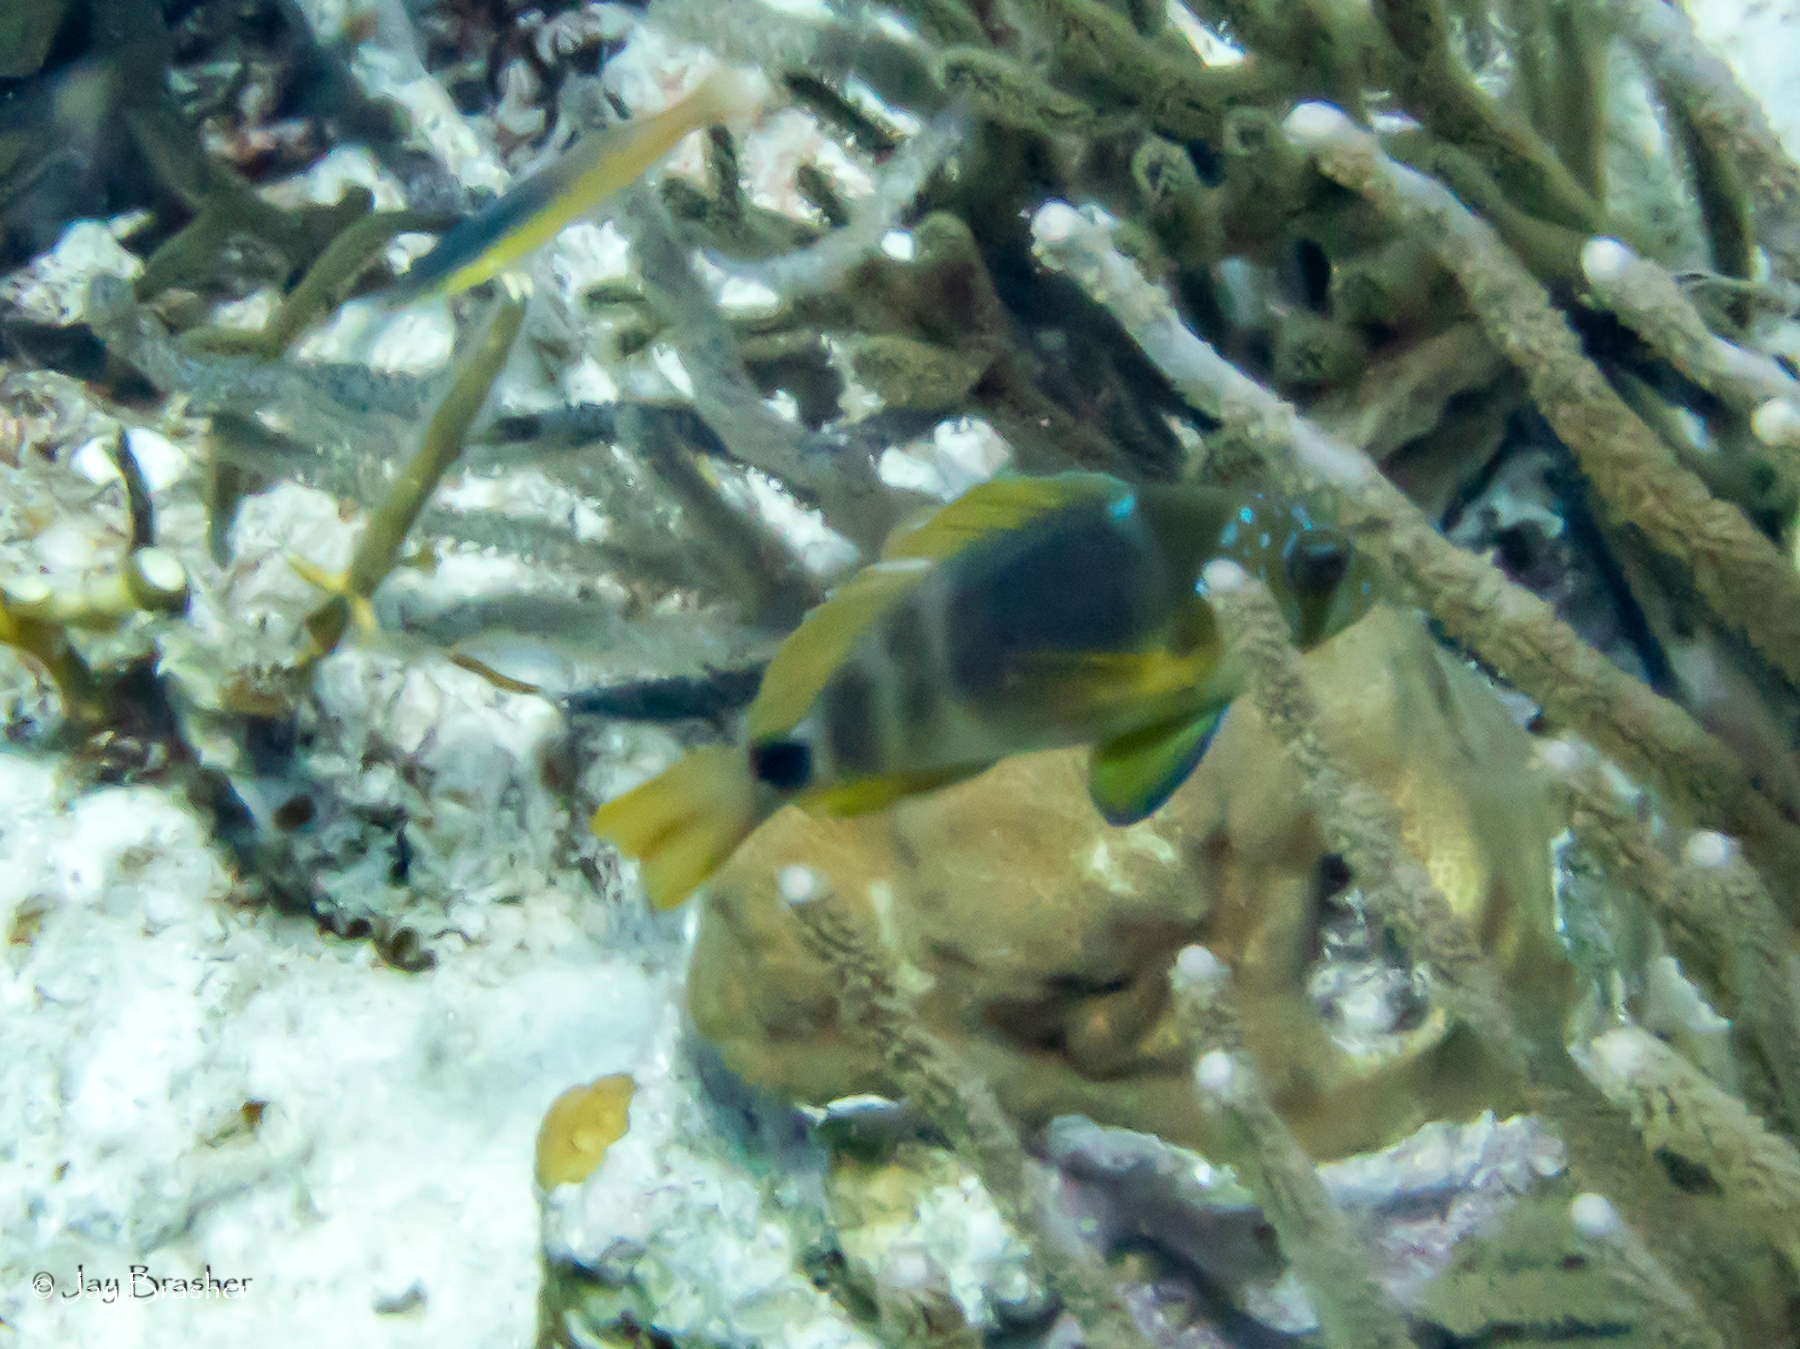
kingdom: Animalia
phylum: Chordata
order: Perciformes
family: Serranidae
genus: Hypoplectrus
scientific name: Hypoplectrus puella
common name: Barred hamlet
